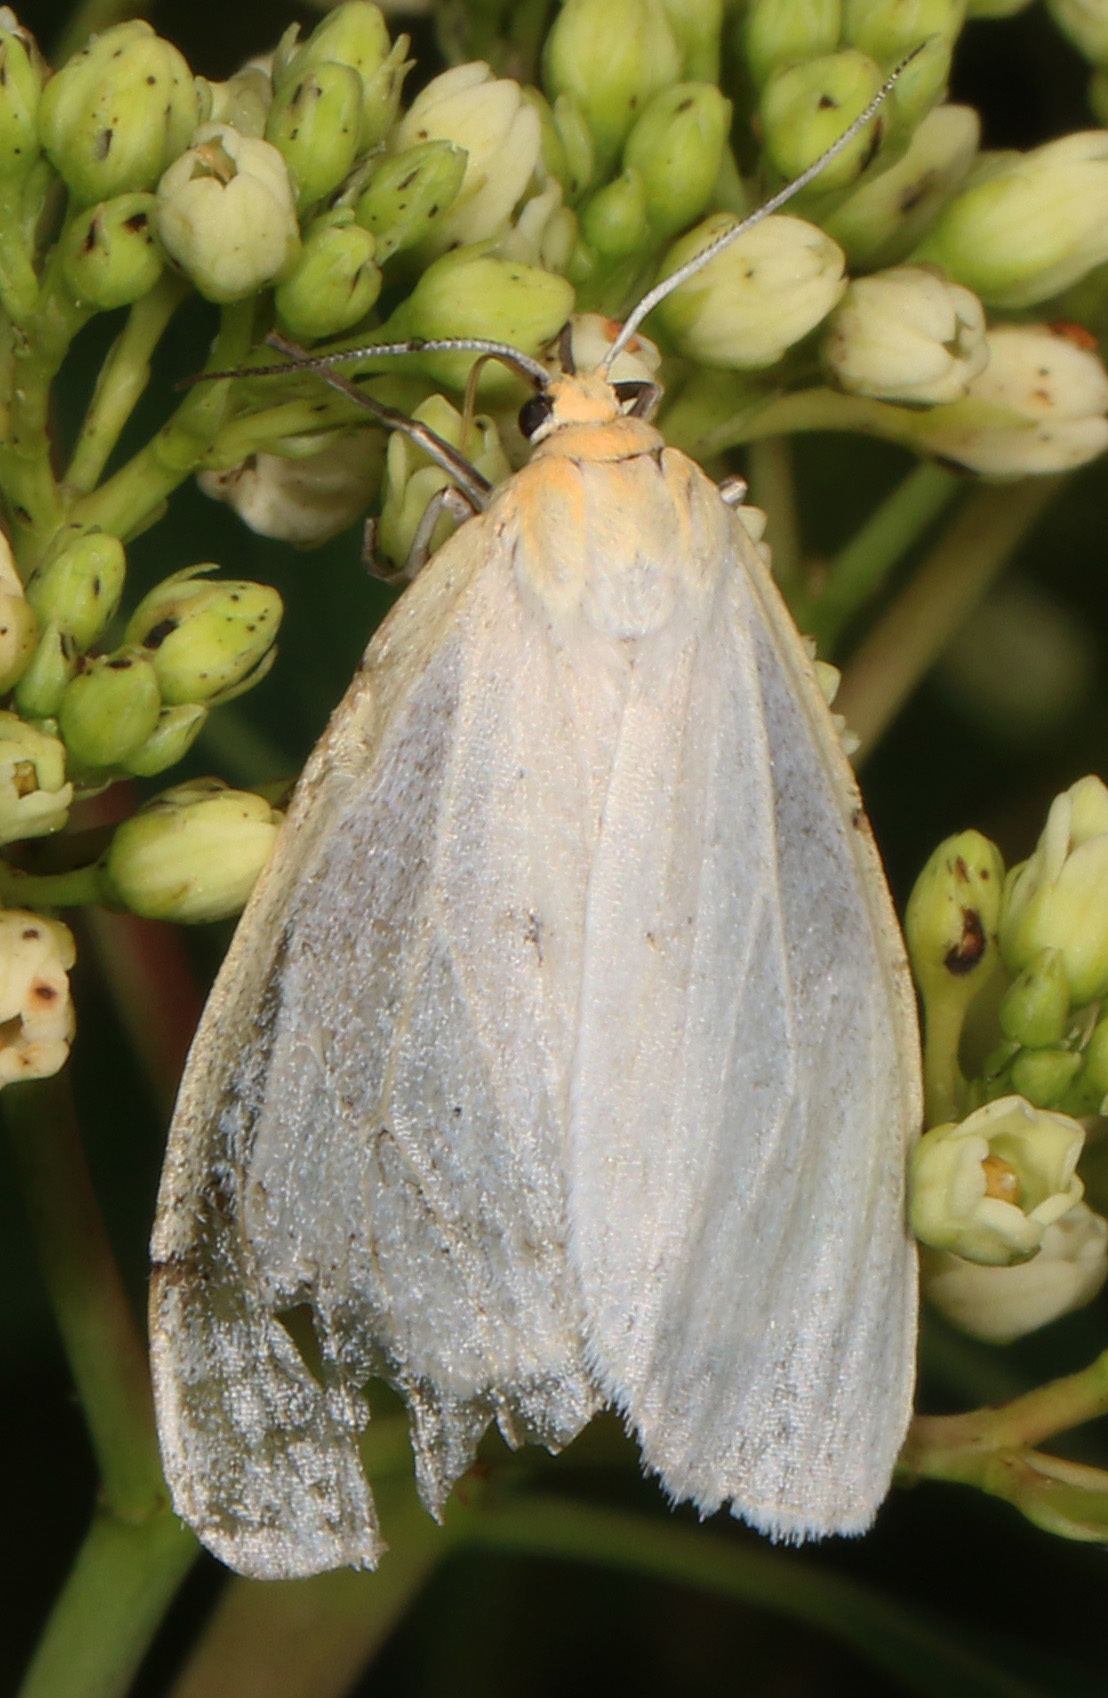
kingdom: Animalia
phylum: Arthropoda
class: Insecta
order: Lepidoptera
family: Erebidae
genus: Cycnia
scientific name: Cycnia tenera
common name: Delicate cycnia moth
